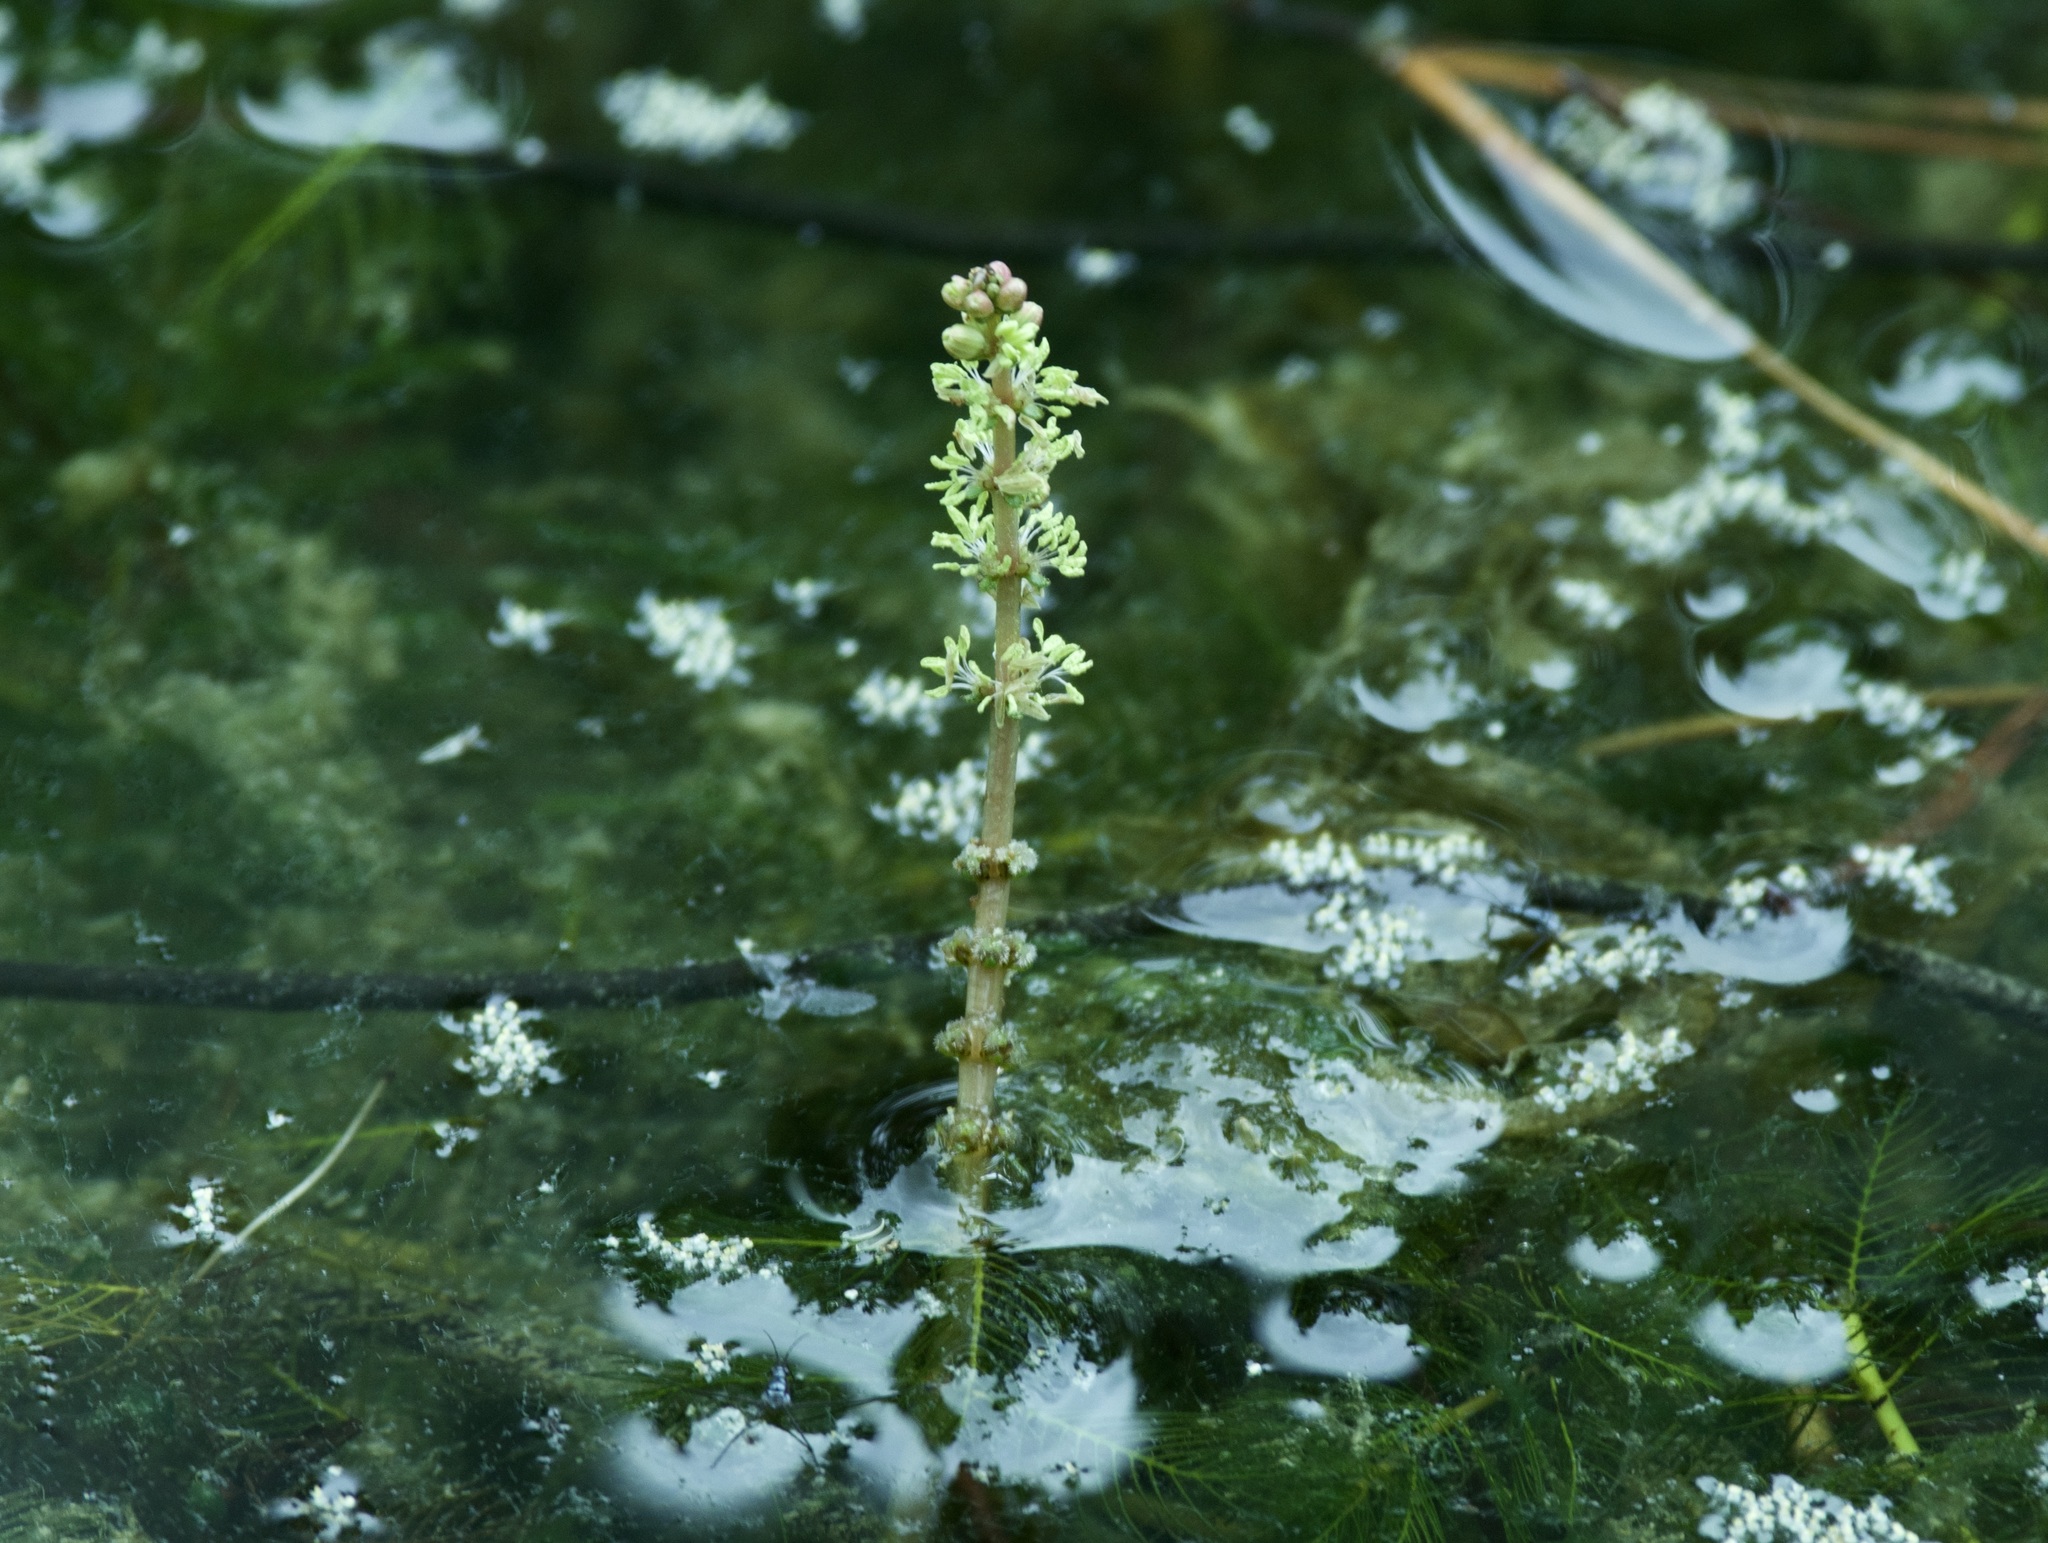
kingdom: Plantae
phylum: Tracheophyta
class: Magnoliopsida
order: Saxifragales
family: Haloragaceae
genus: Myriophyllum
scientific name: Myriophyllum spicatum
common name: Spiked water-milfoil
